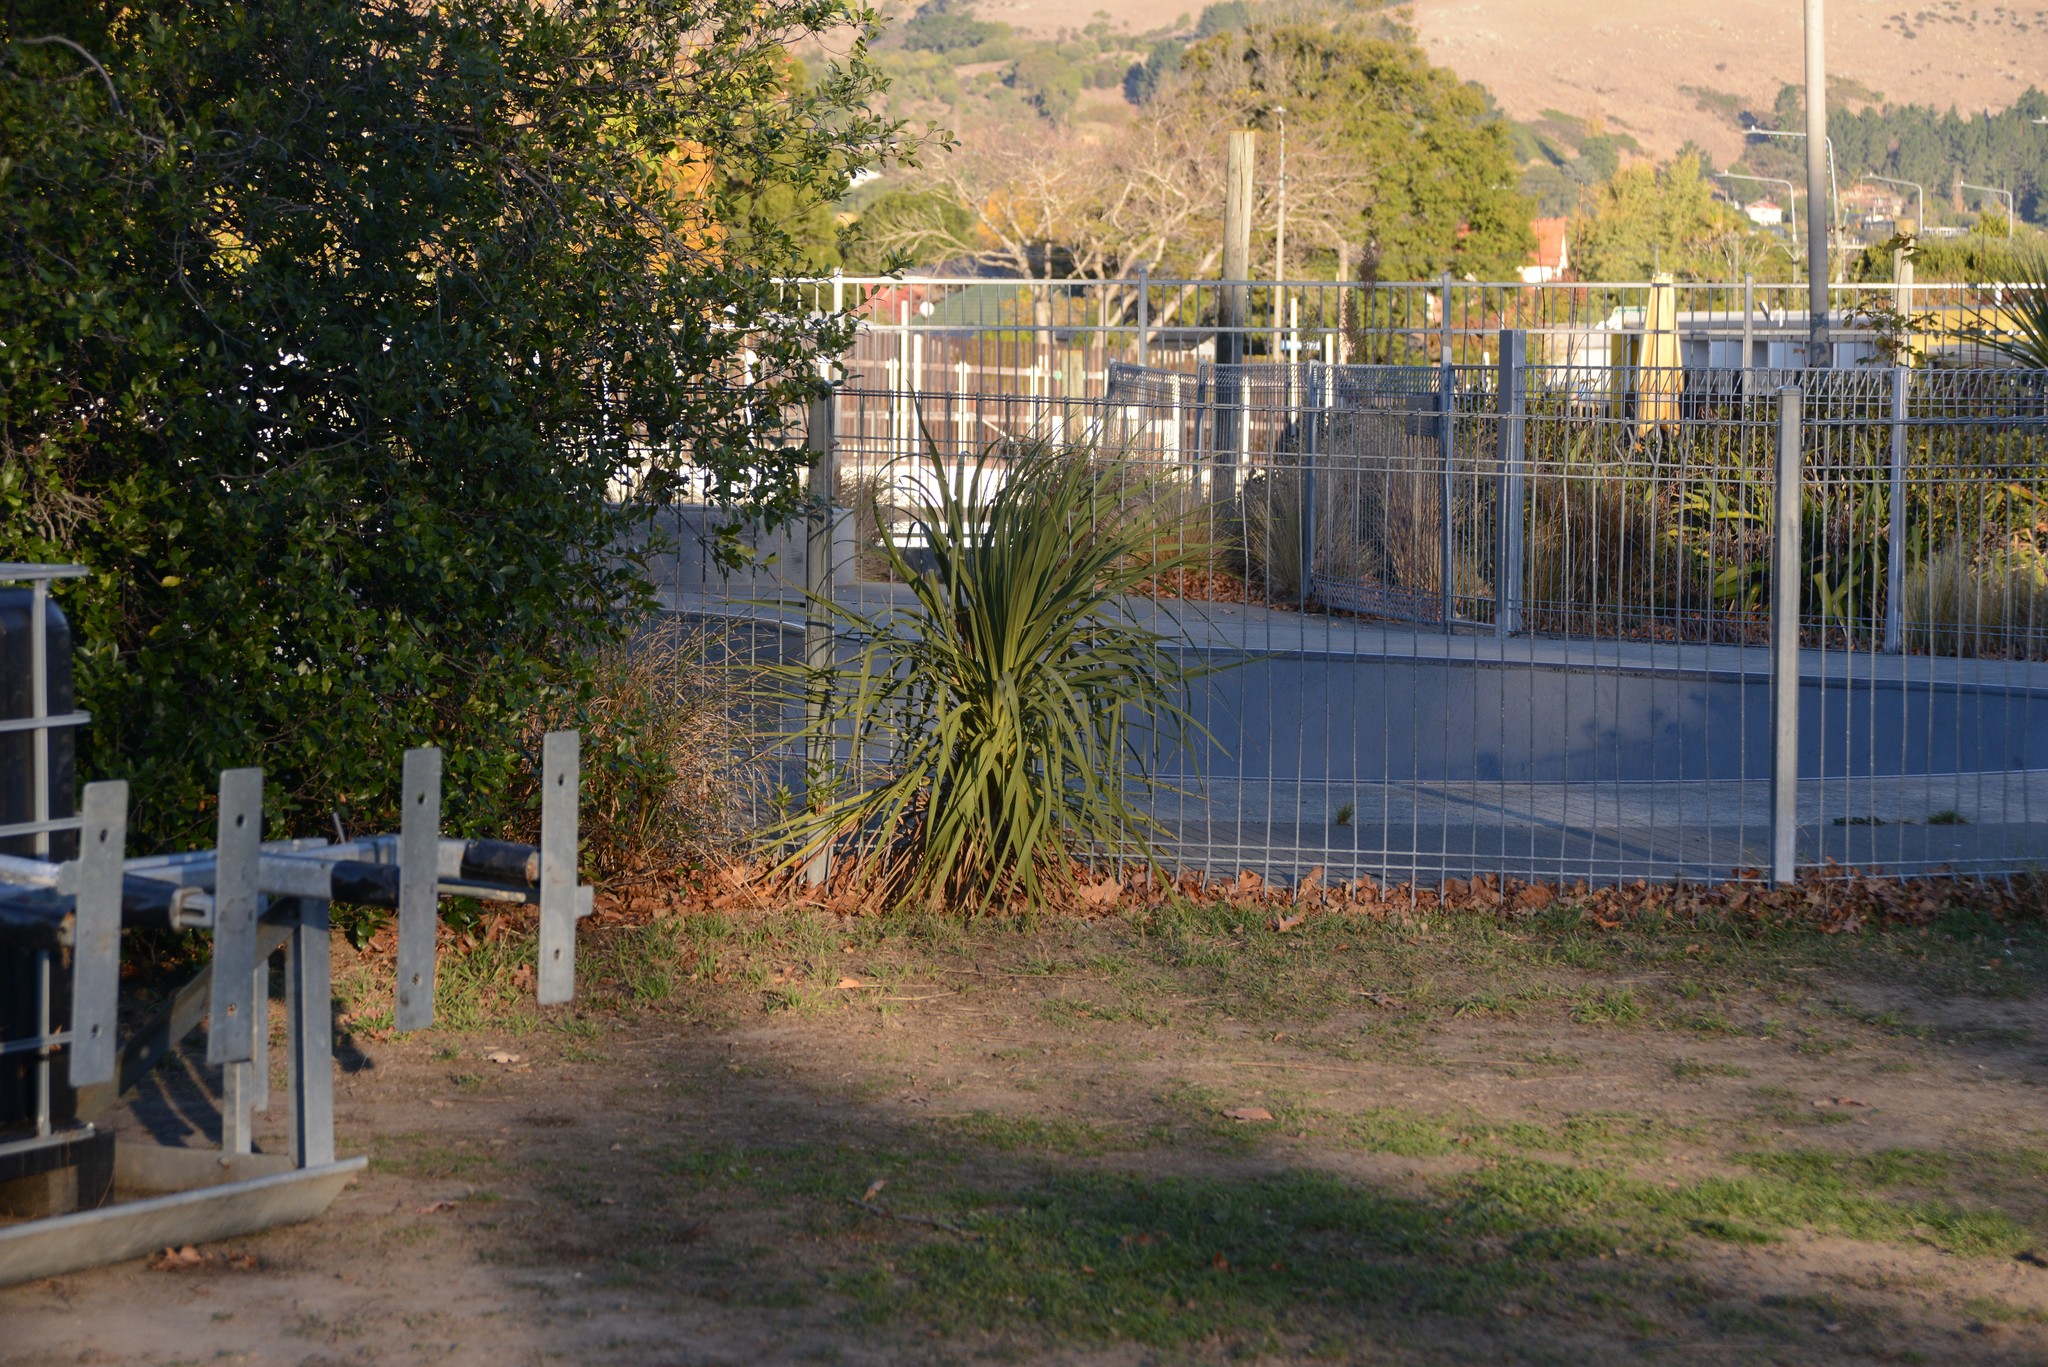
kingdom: Plantae
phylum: Tracheophyta
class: Liliopsida
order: Asparagales
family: Asparagaceae
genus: Cordyline
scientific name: Cordyline australis
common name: Cabbage-palm
